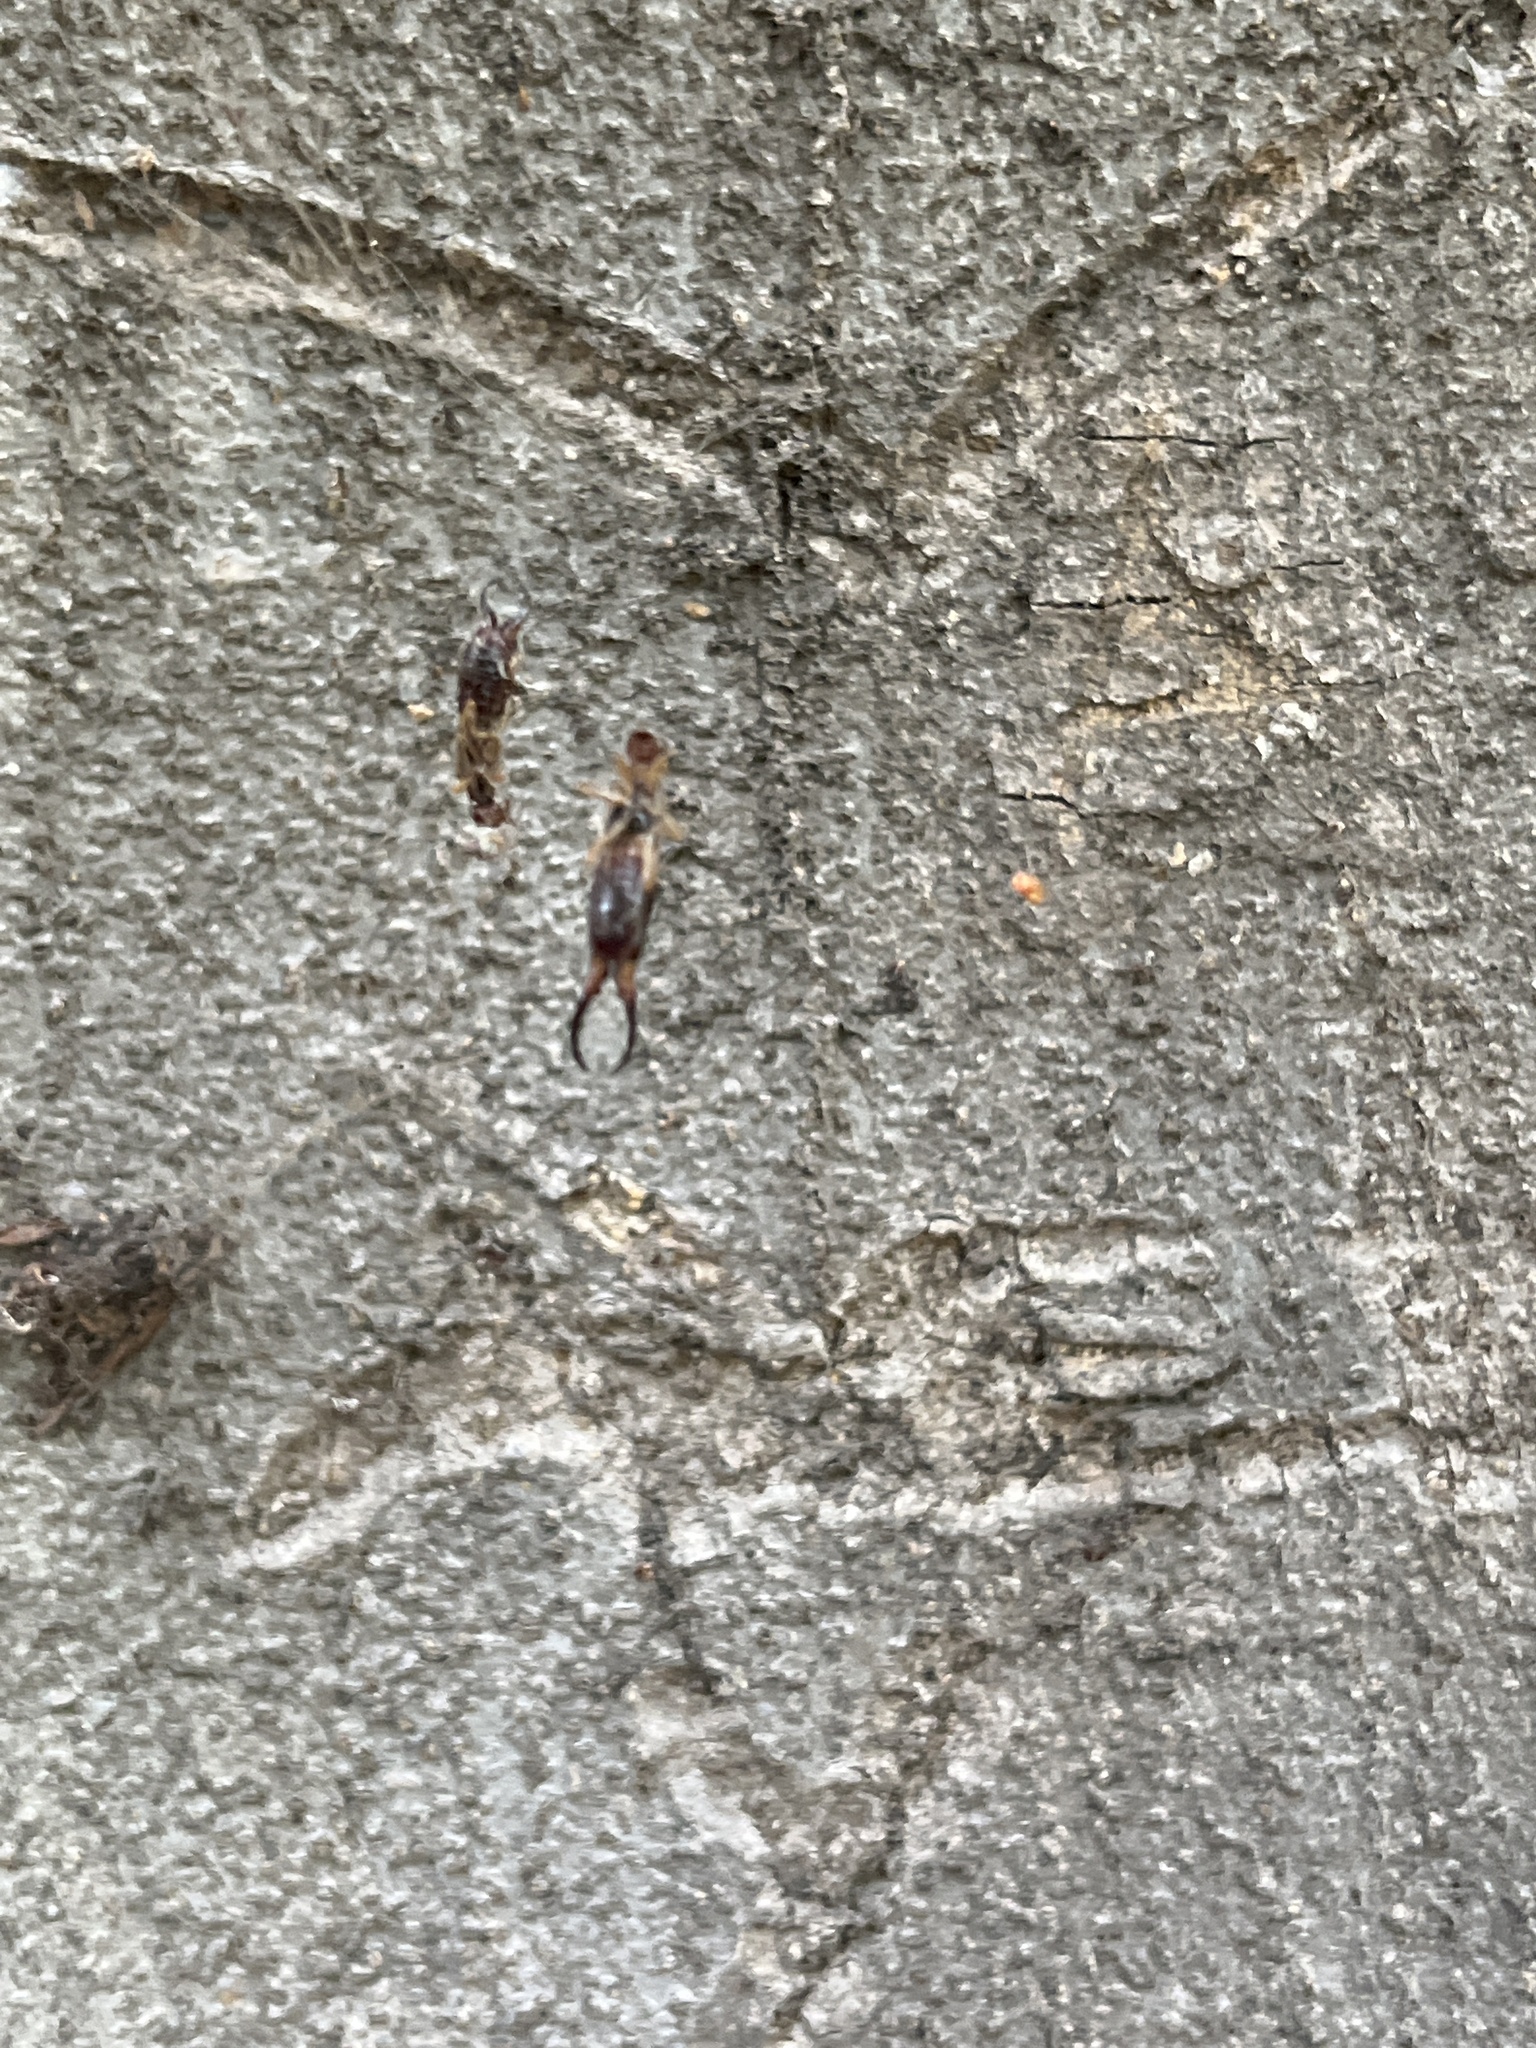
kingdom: Animalia
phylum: Arthropoda
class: Insecta
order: Dermaptera
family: Forficulidae
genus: Forficula
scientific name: Forficula dentata
